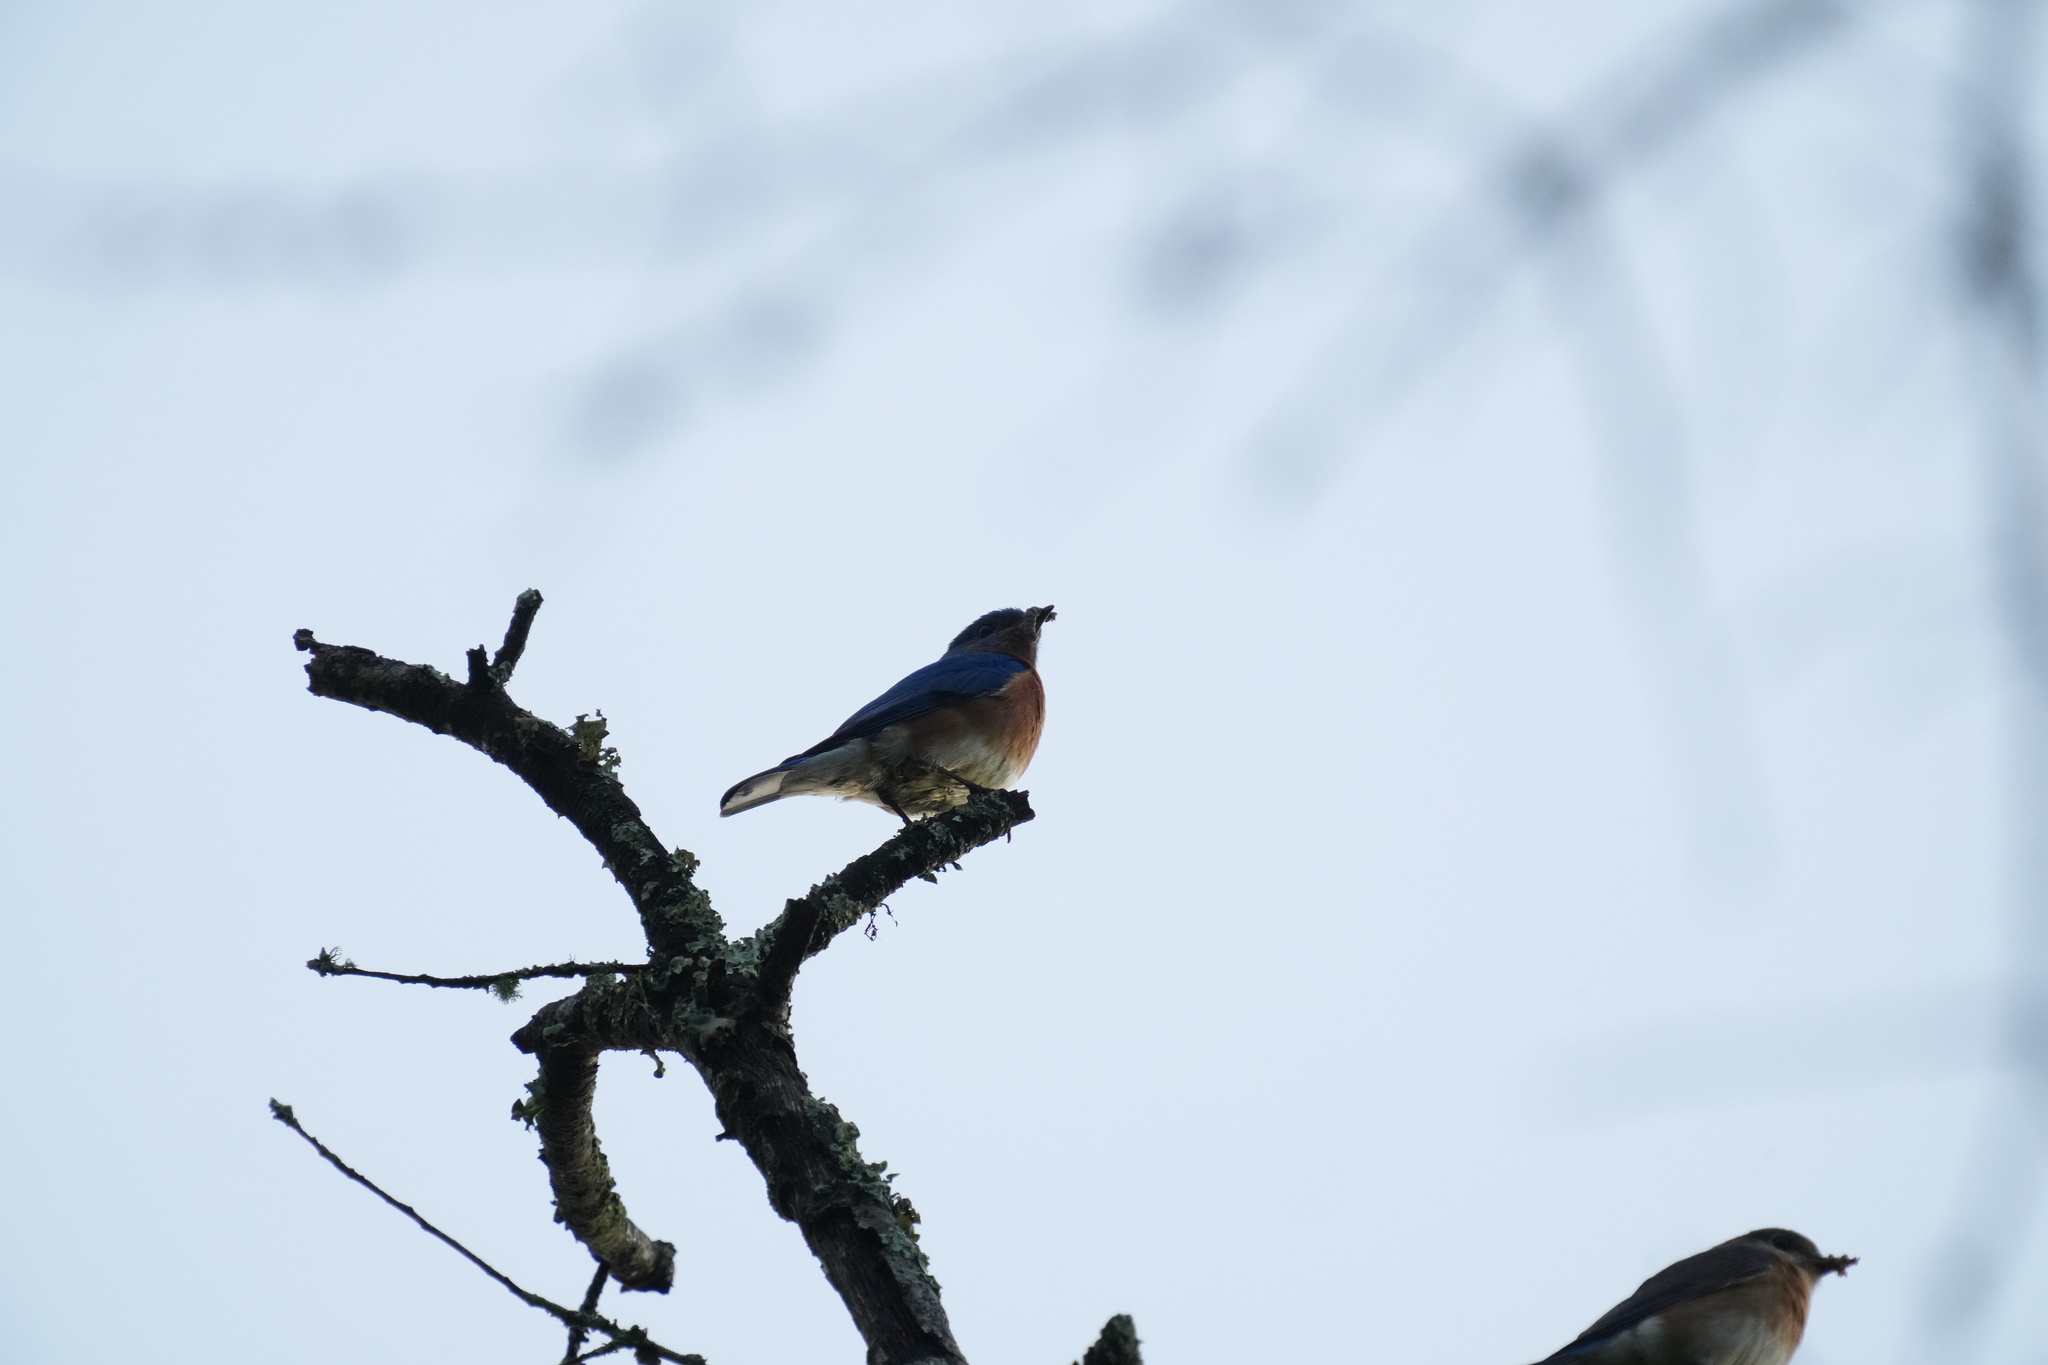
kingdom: Animalia
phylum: Chordata
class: Aves
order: Passeriformes
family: Turdidae
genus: Sialia
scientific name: Sialia sialis
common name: Eastern bluebird
